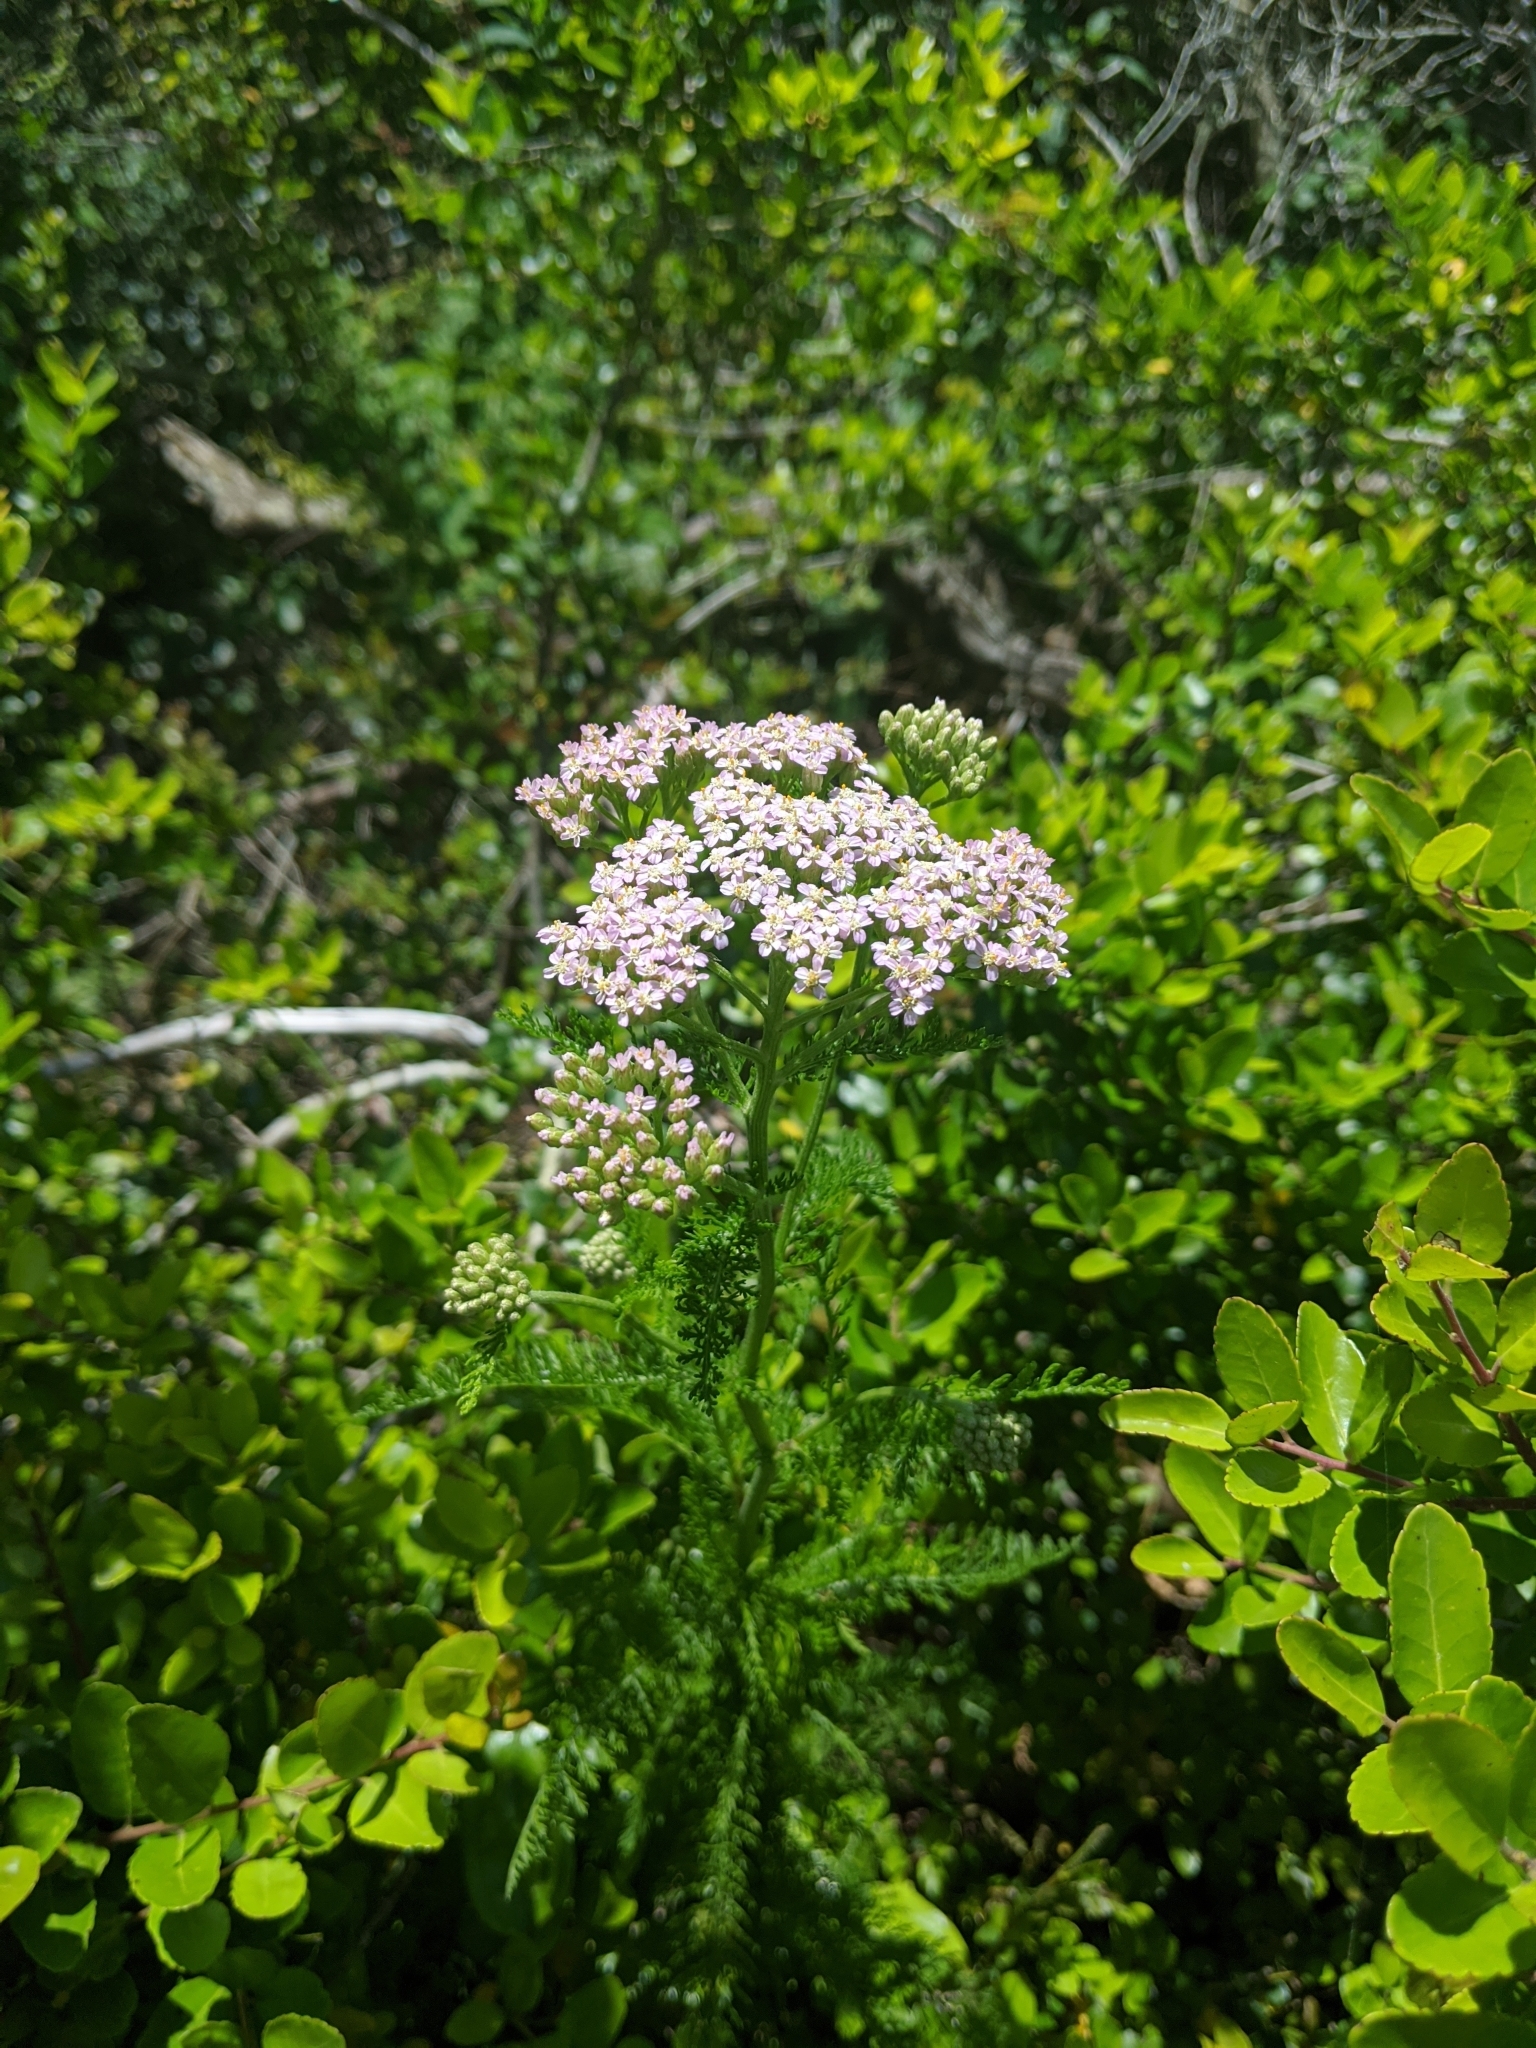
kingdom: Plantae
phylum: Tracheophyta
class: Magnoliopsida
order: Asterales
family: Asteraceae
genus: Achillea
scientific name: Achillea millefolium
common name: Yarrow
